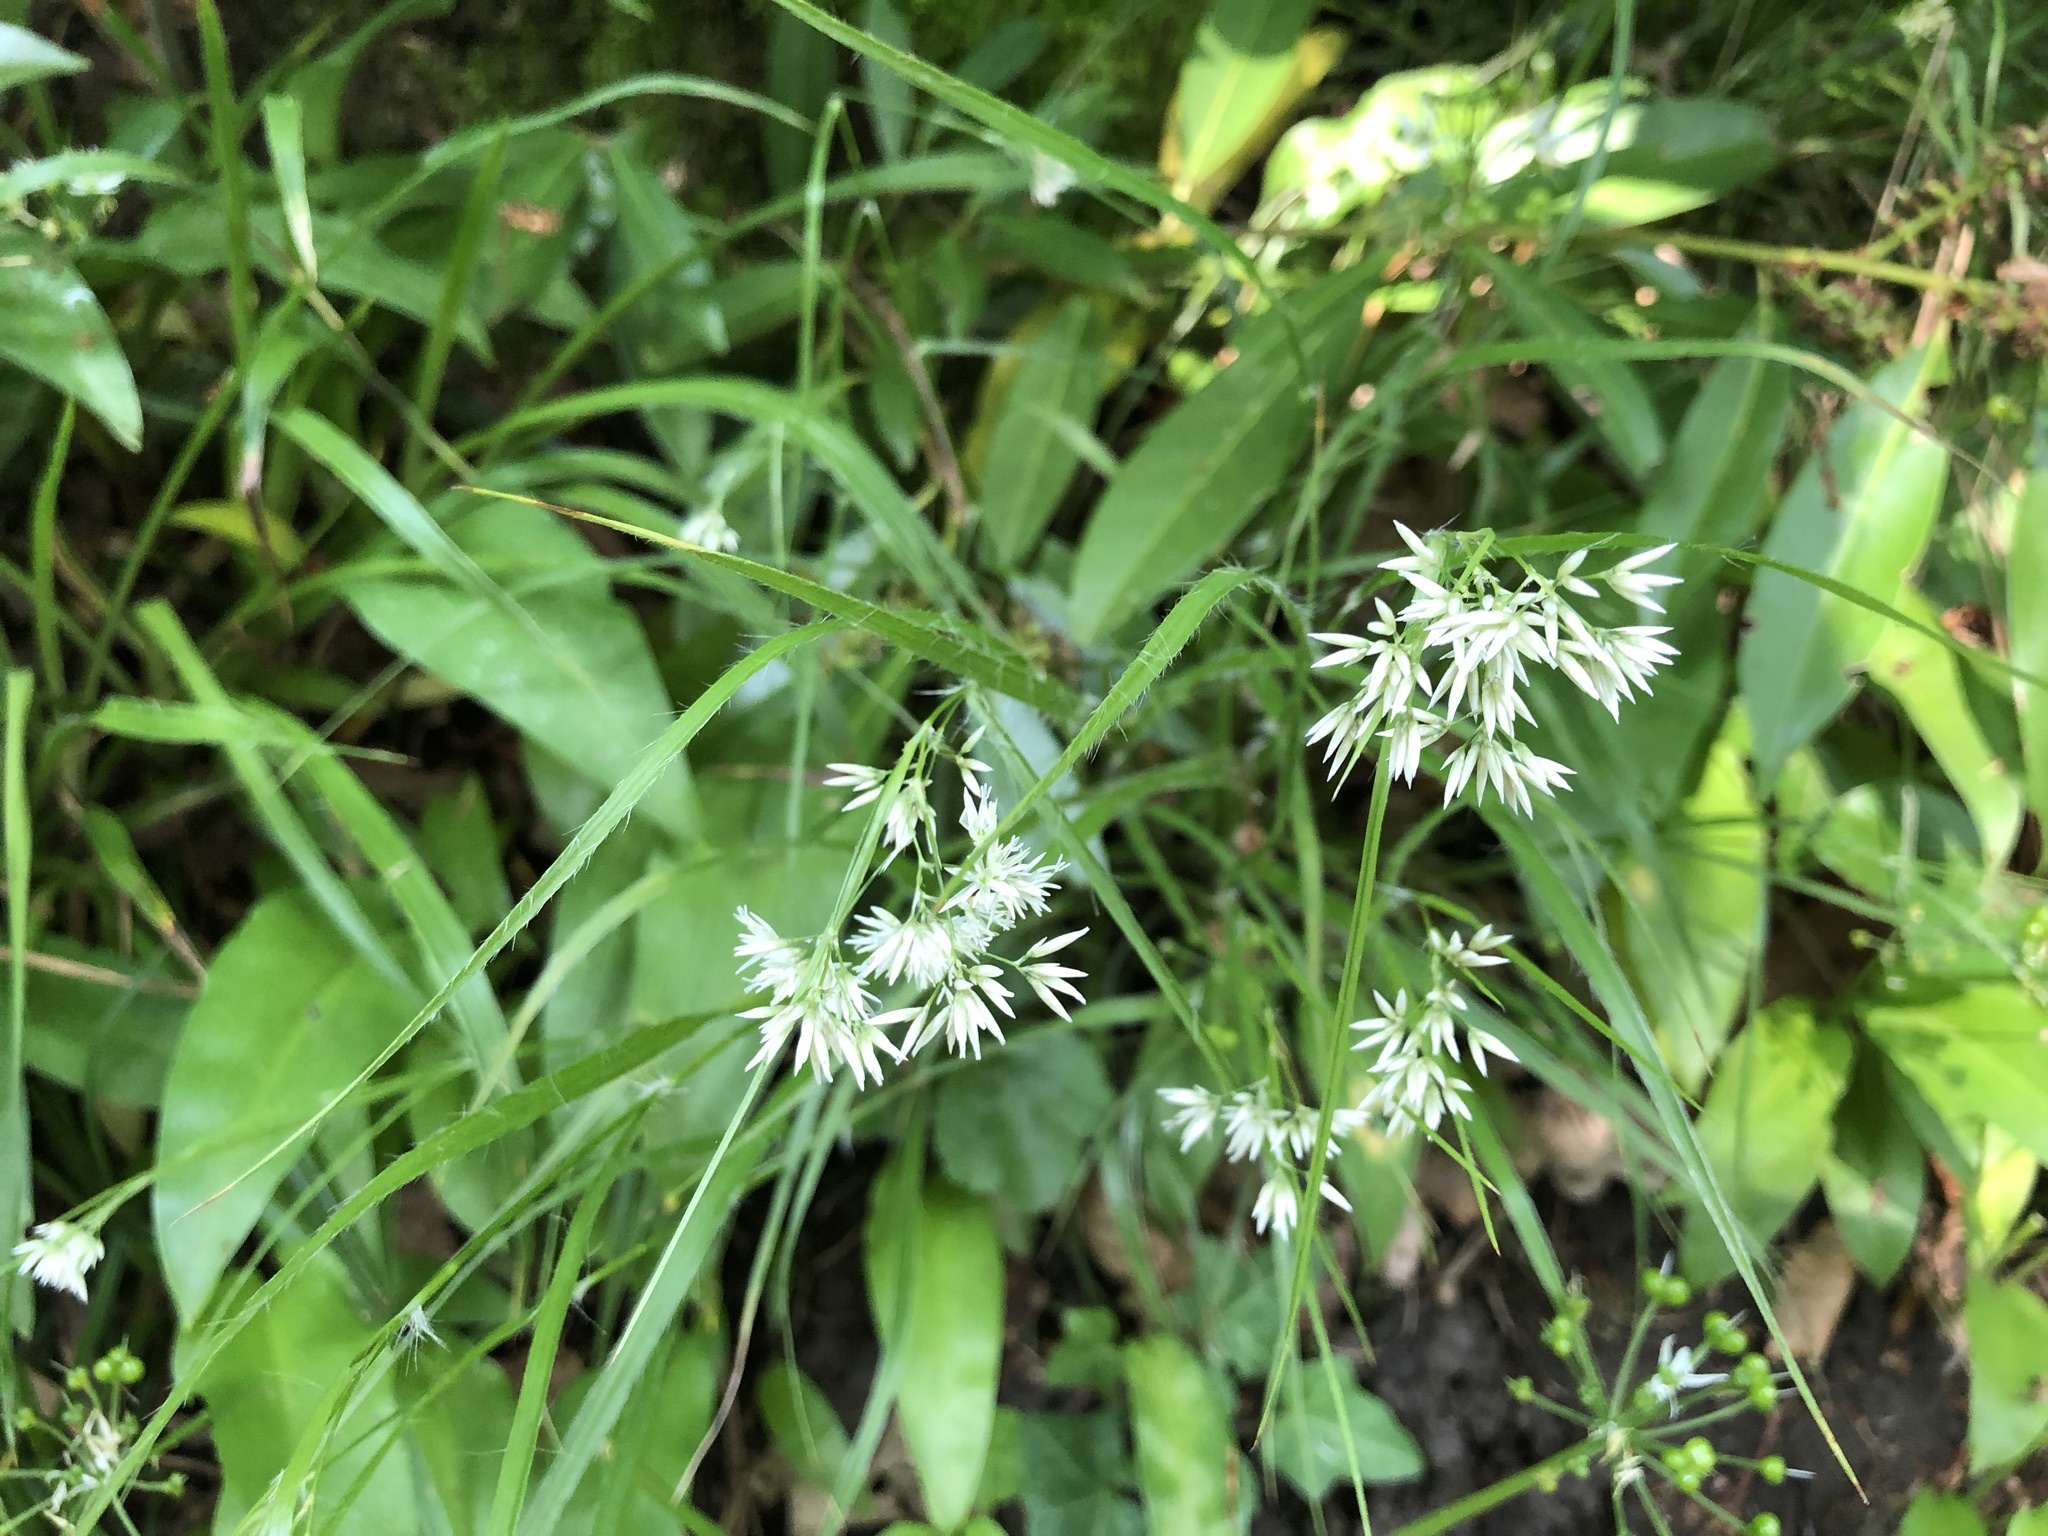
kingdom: Plantae
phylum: Tracheophyta
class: Liliopsida
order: Poales
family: Juncaceae
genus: Luzula
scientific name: Luzula luzuloides
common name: White wood-rush
